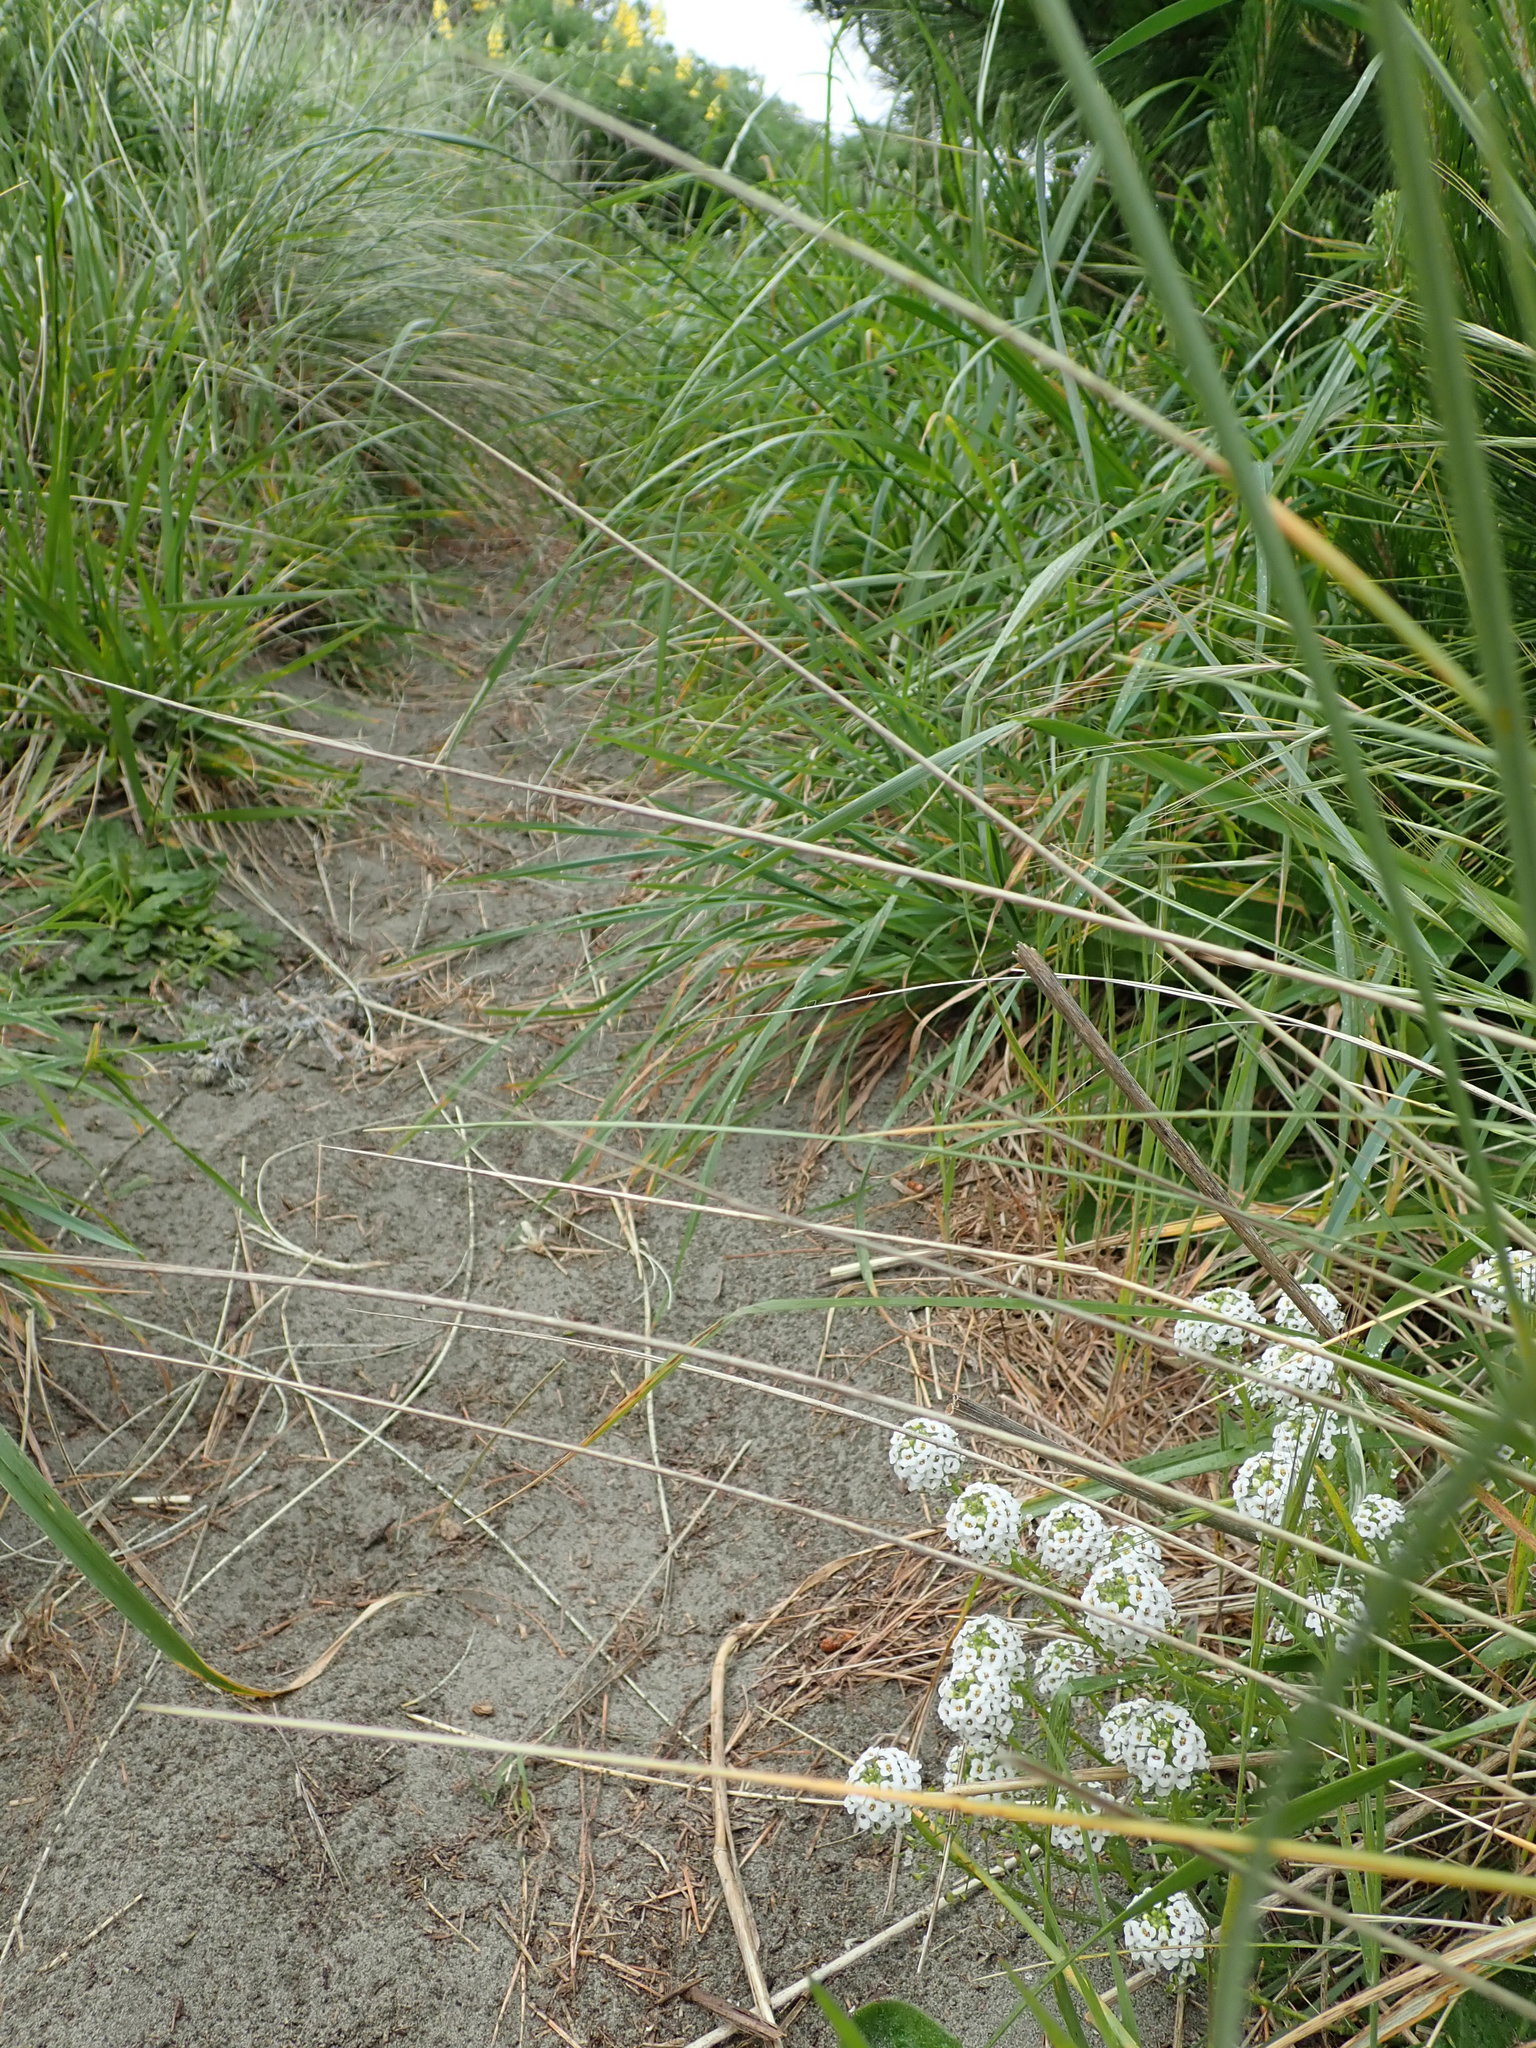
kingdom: Plantae
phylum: Tracheophyta
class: Magnoliopsida
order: Brassicales
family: Brassicaceae
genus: Lobularia
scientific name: Lobularia maritima
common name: Sweet alison
